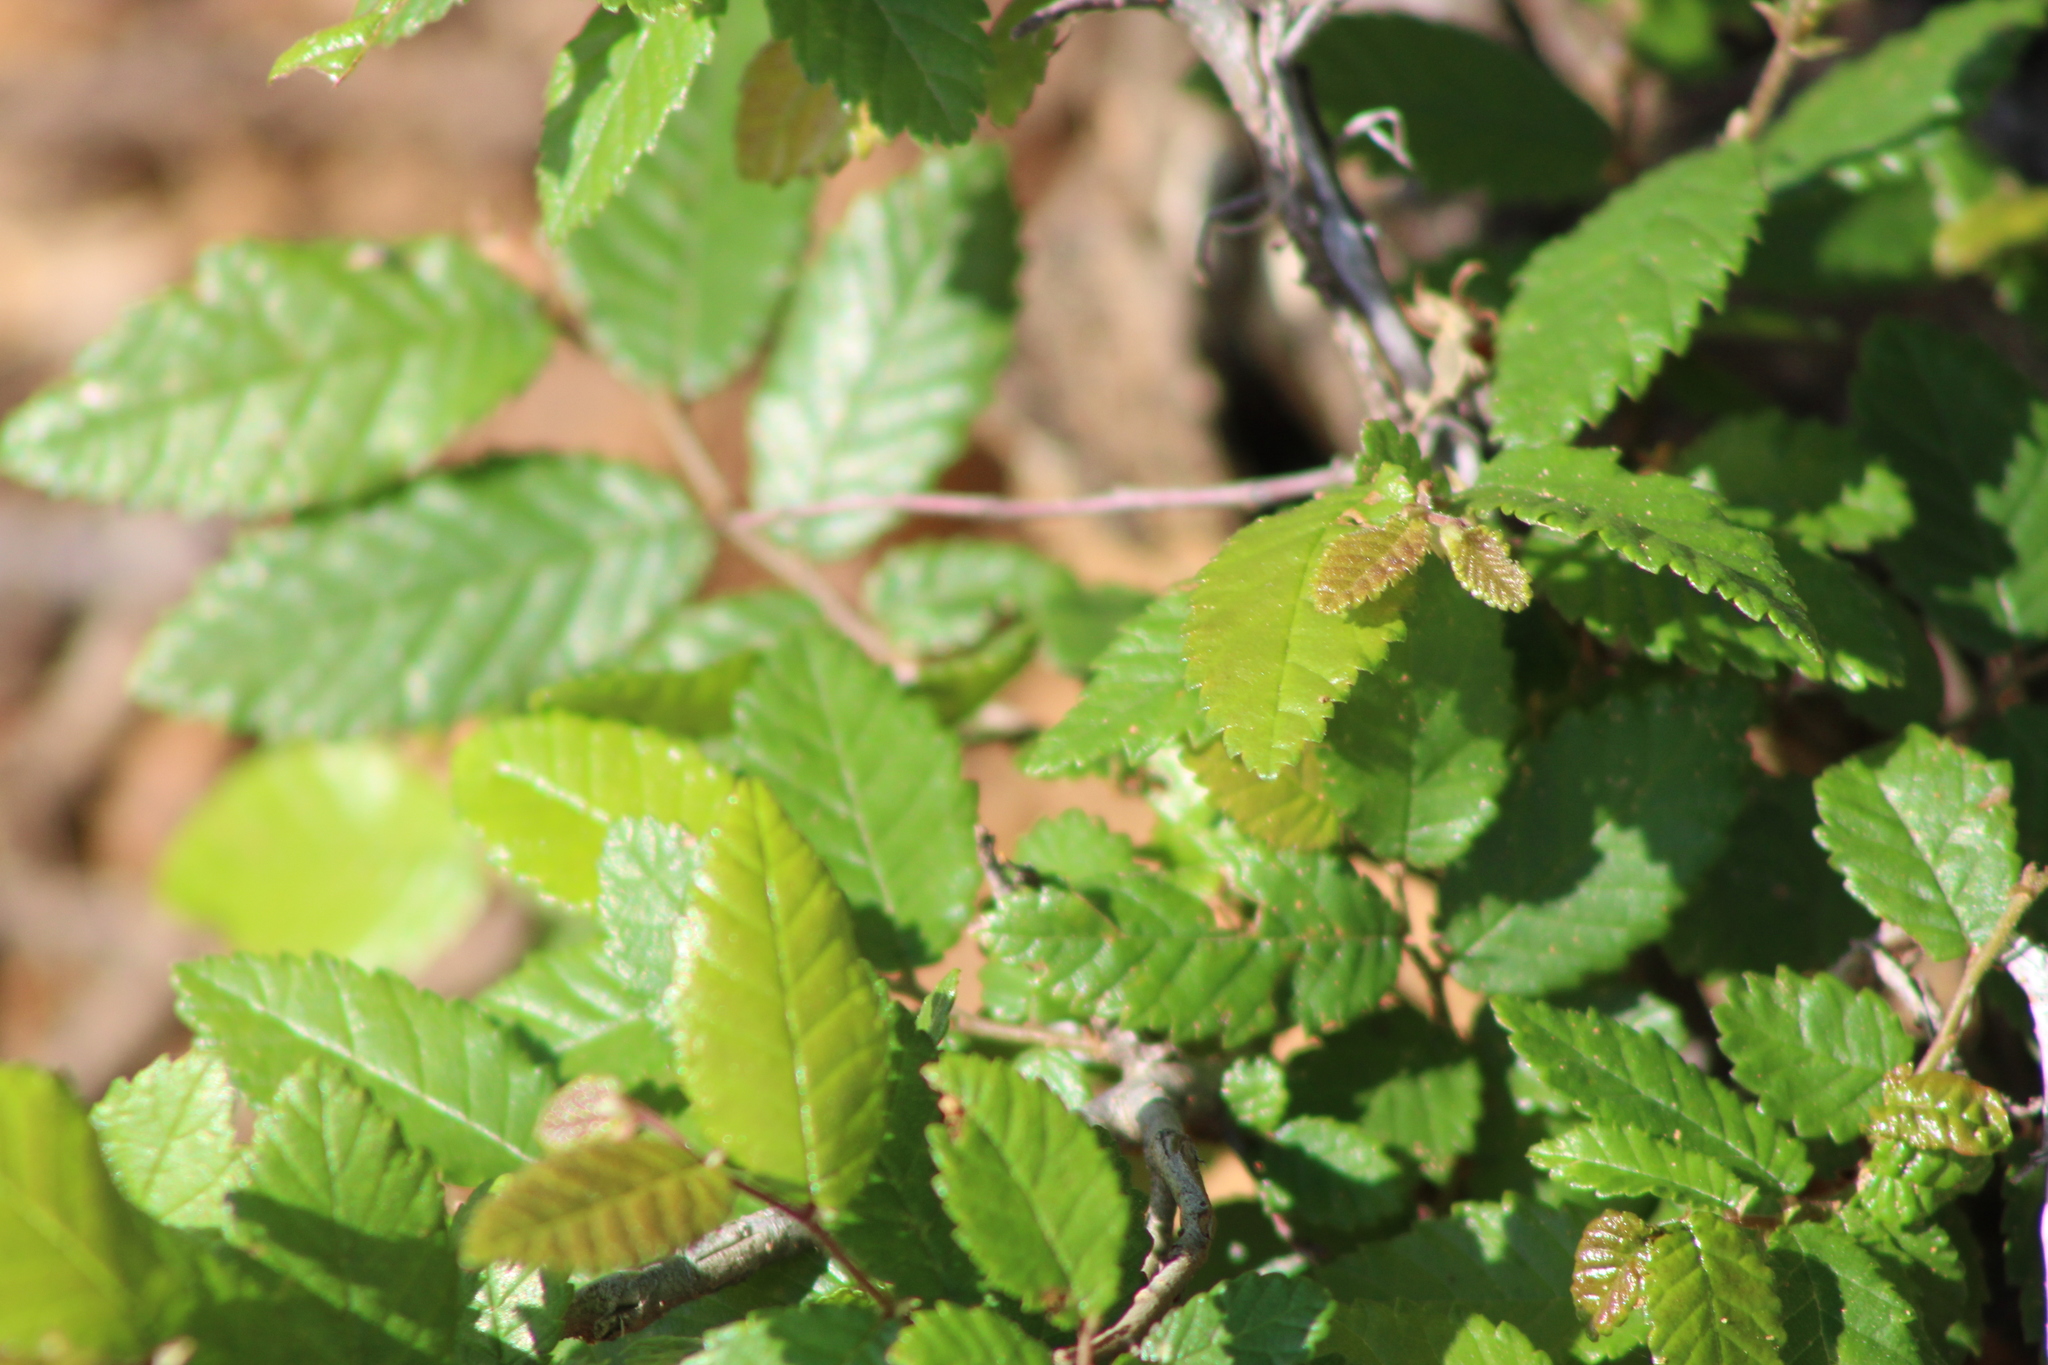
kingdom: Plantae
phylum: Tracheophyta
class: Magnoliopsida
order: Rosales
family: Ulmaceae
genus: Ulmus
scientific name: Ulmus crassifolia
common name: Basket elm
